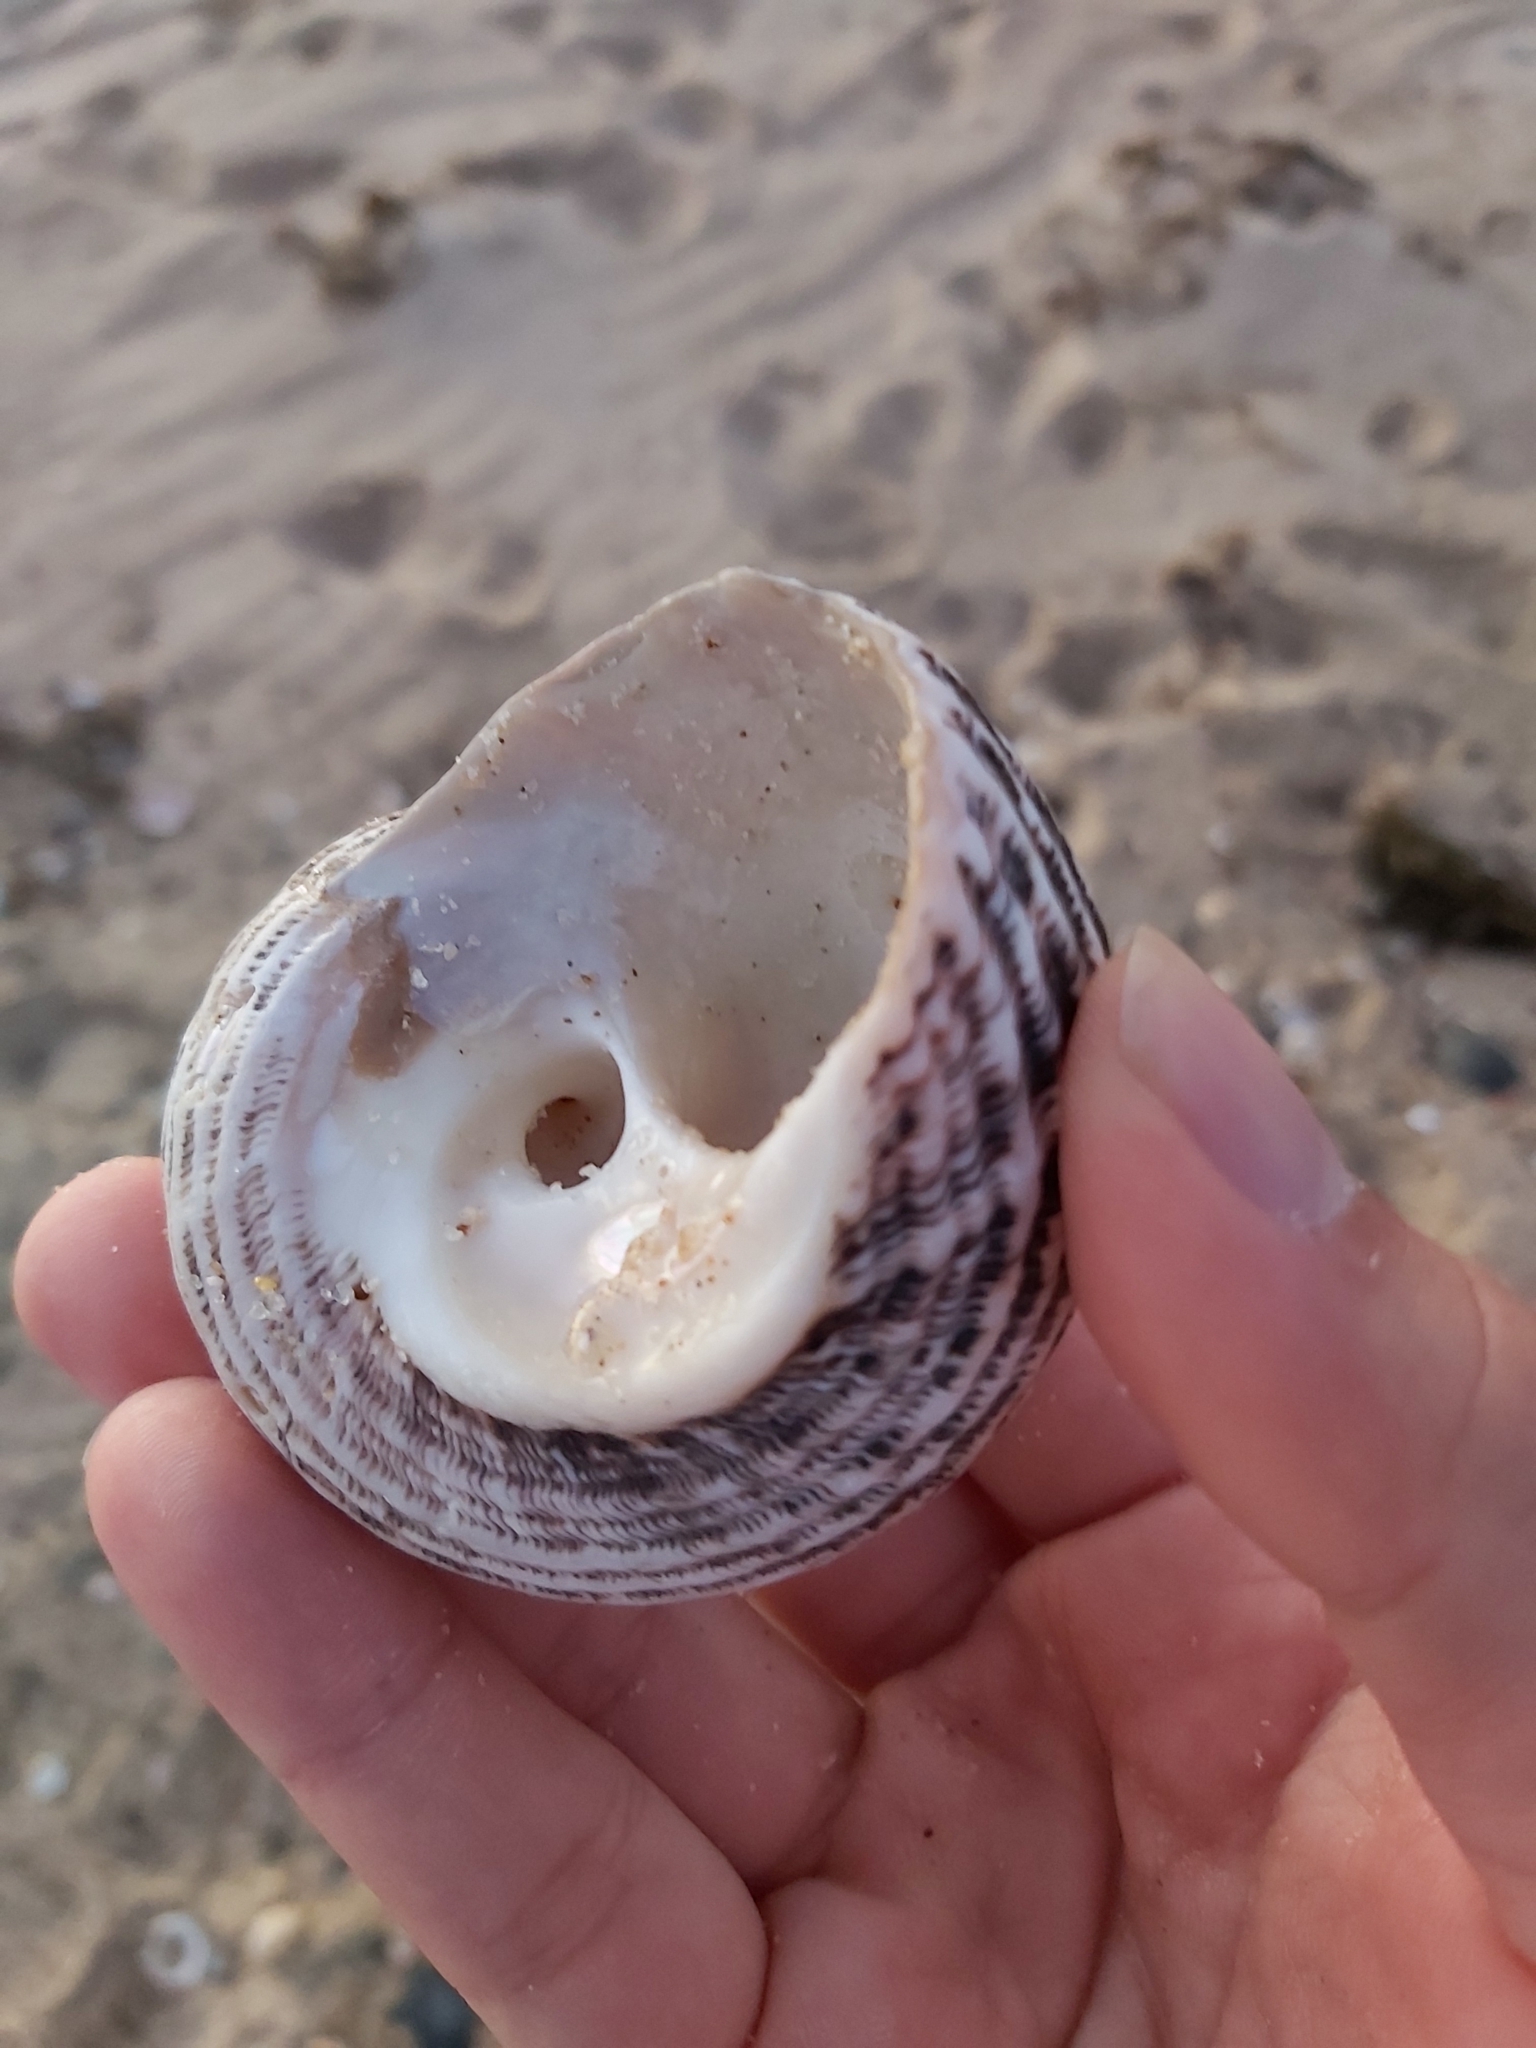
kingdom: Animalia
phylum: Mollusca
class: Gastropoda
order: Trochida
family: Turbinidae
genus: Lunella
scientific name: Lunella torquata
